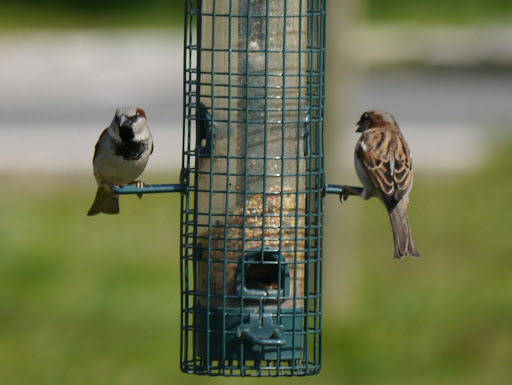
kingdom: Animalia
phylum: Chordata
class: Aves
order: Passeriformes
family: Passeridae
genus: Passer
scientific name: Passer domesticus
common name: House sparrow
